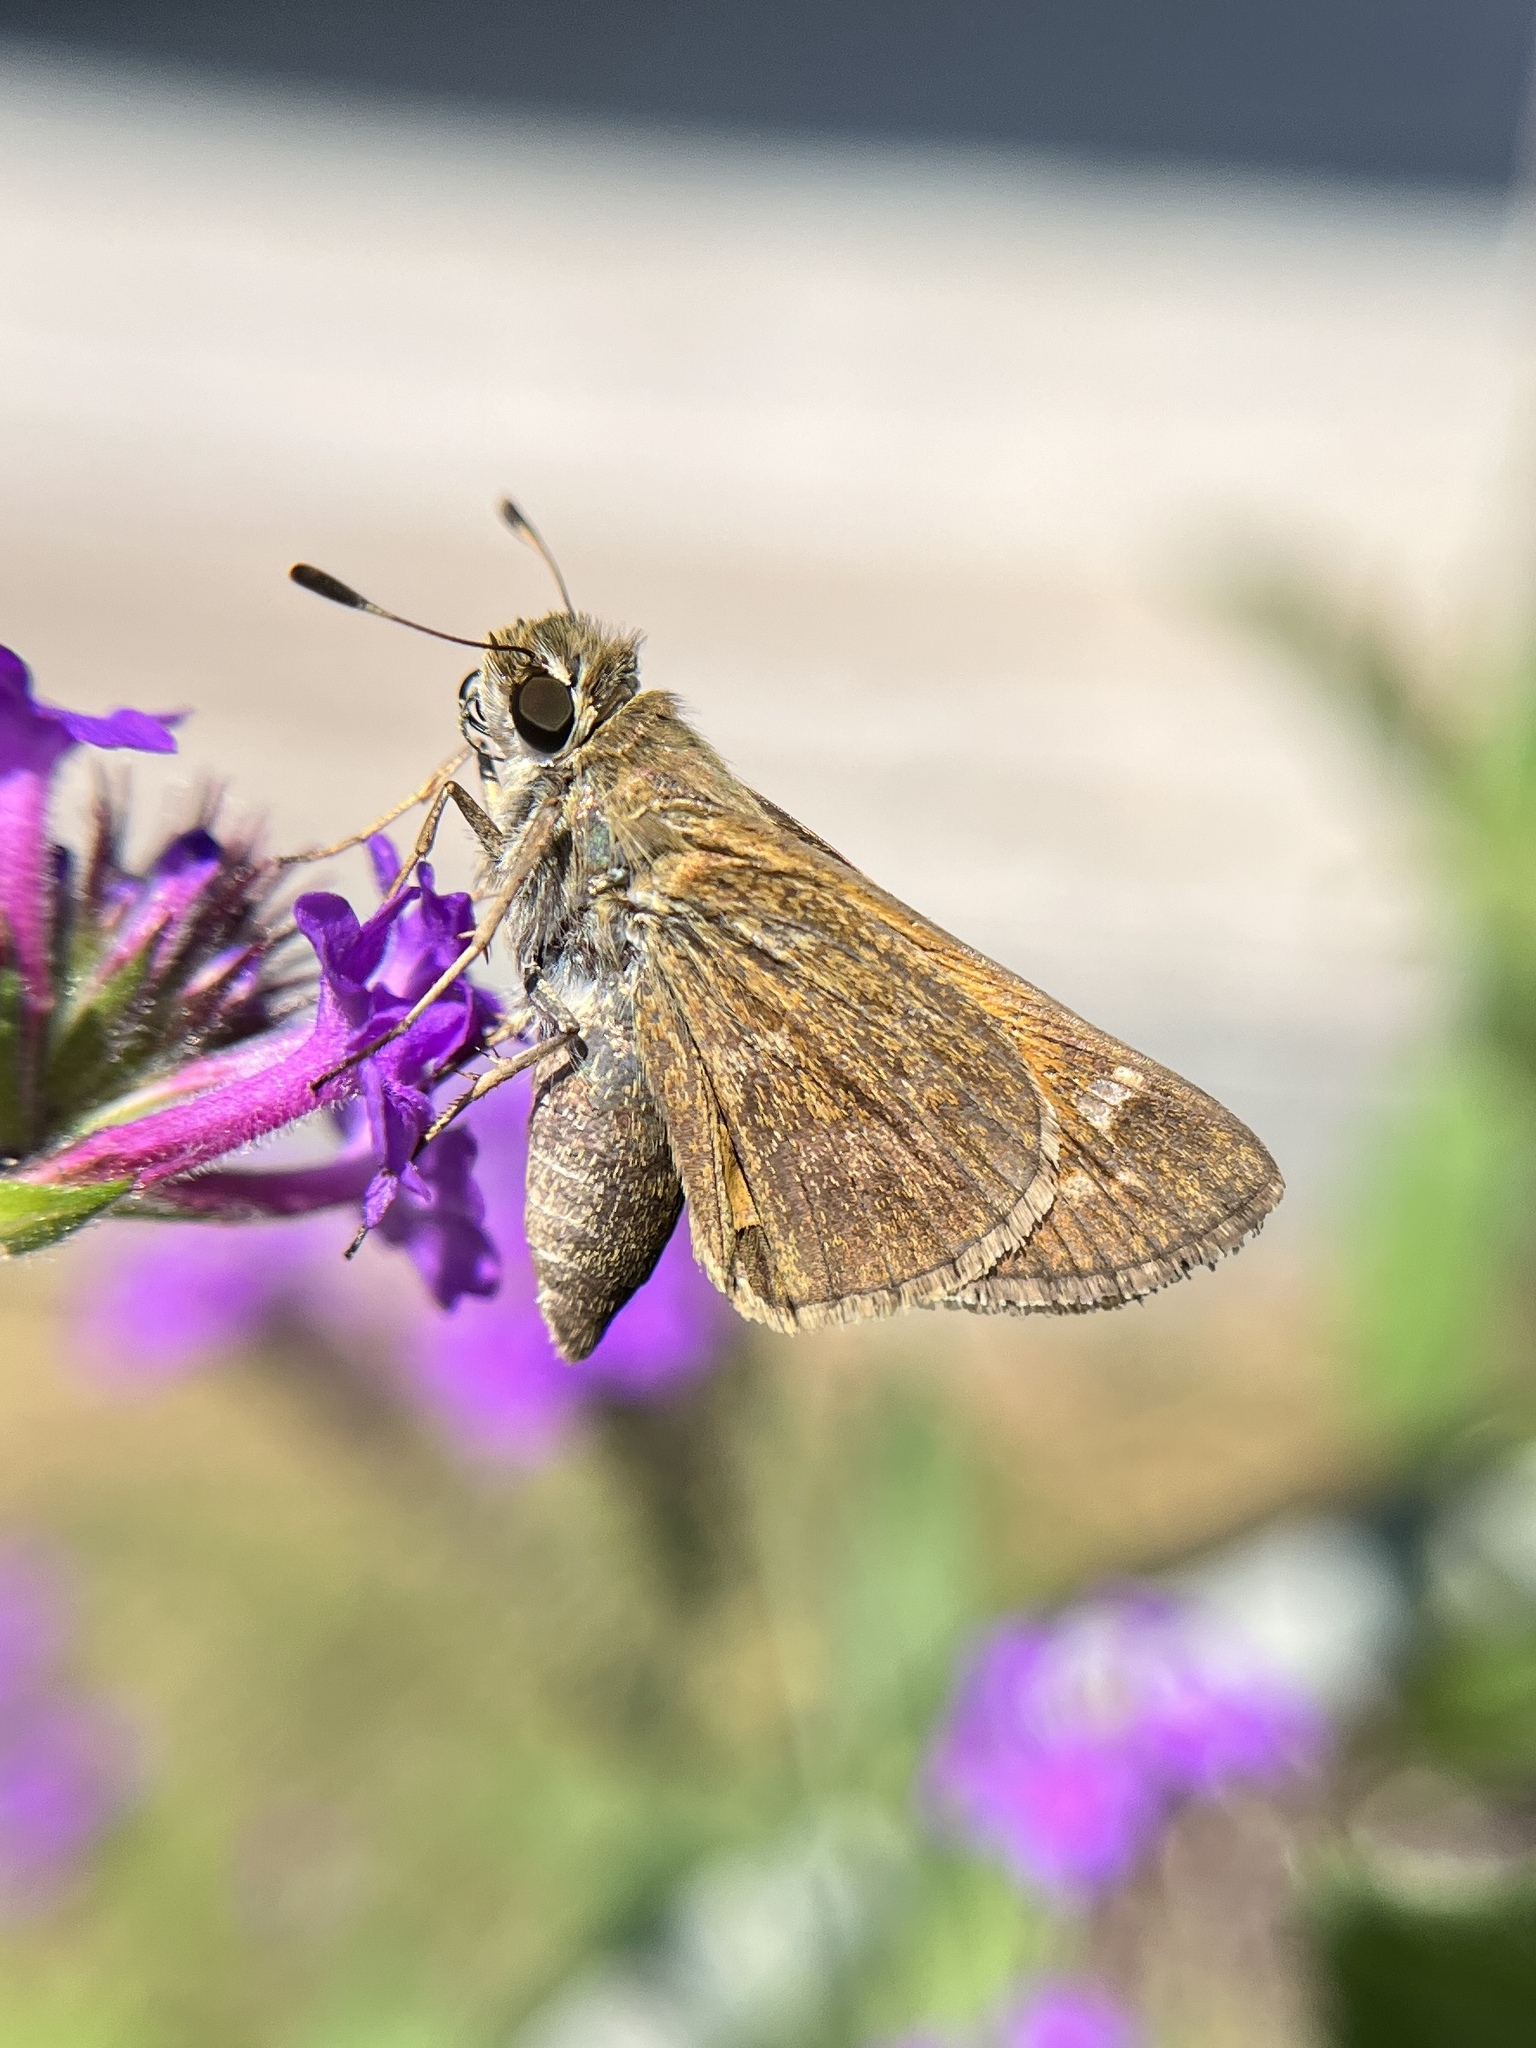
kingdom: Animalia
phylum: Arthropoda
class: Insecta
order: Lepidoptera
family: Hesperiidae
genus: Atalopedes
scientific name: Atalopedes
